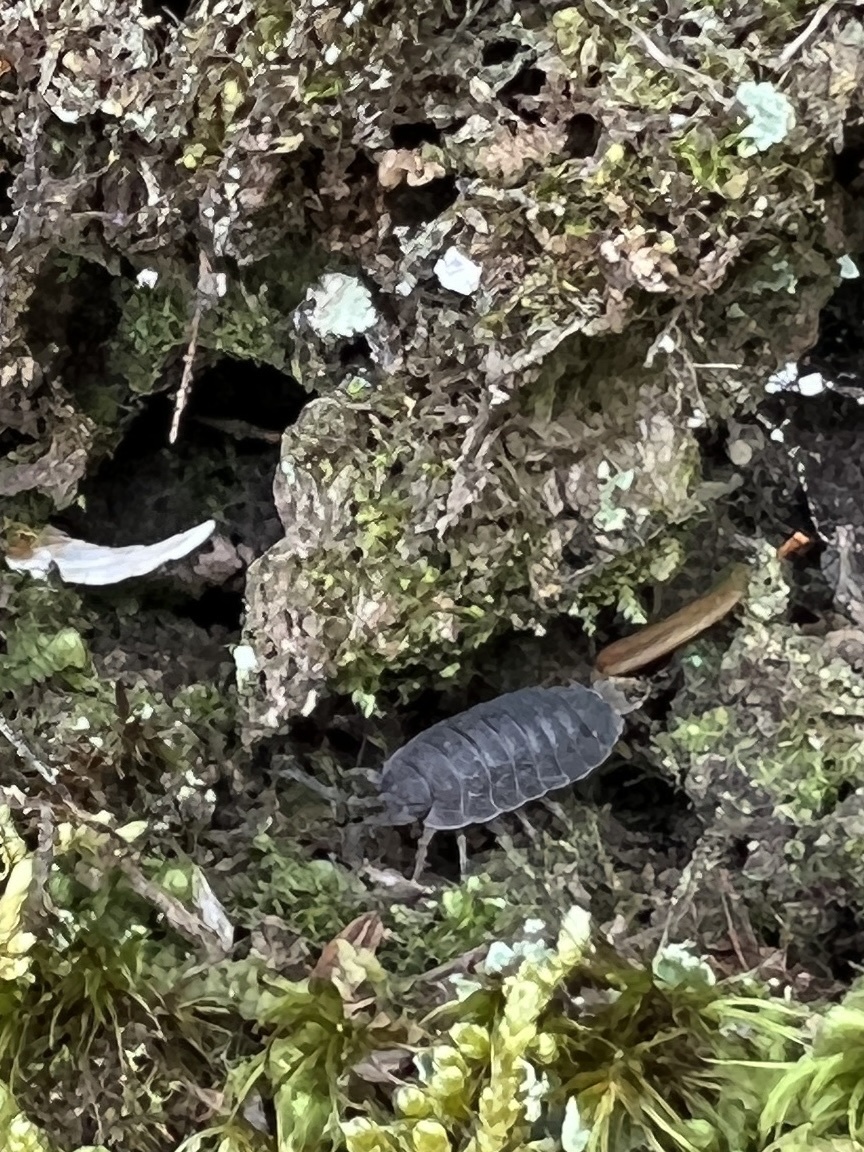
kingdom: Animalia
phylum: Arthropoda
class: Malacostraca
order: Isopoda
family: Porcellionidae
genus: Porcellio
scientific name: Porcellio scaber
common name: Common rough woodlouse
